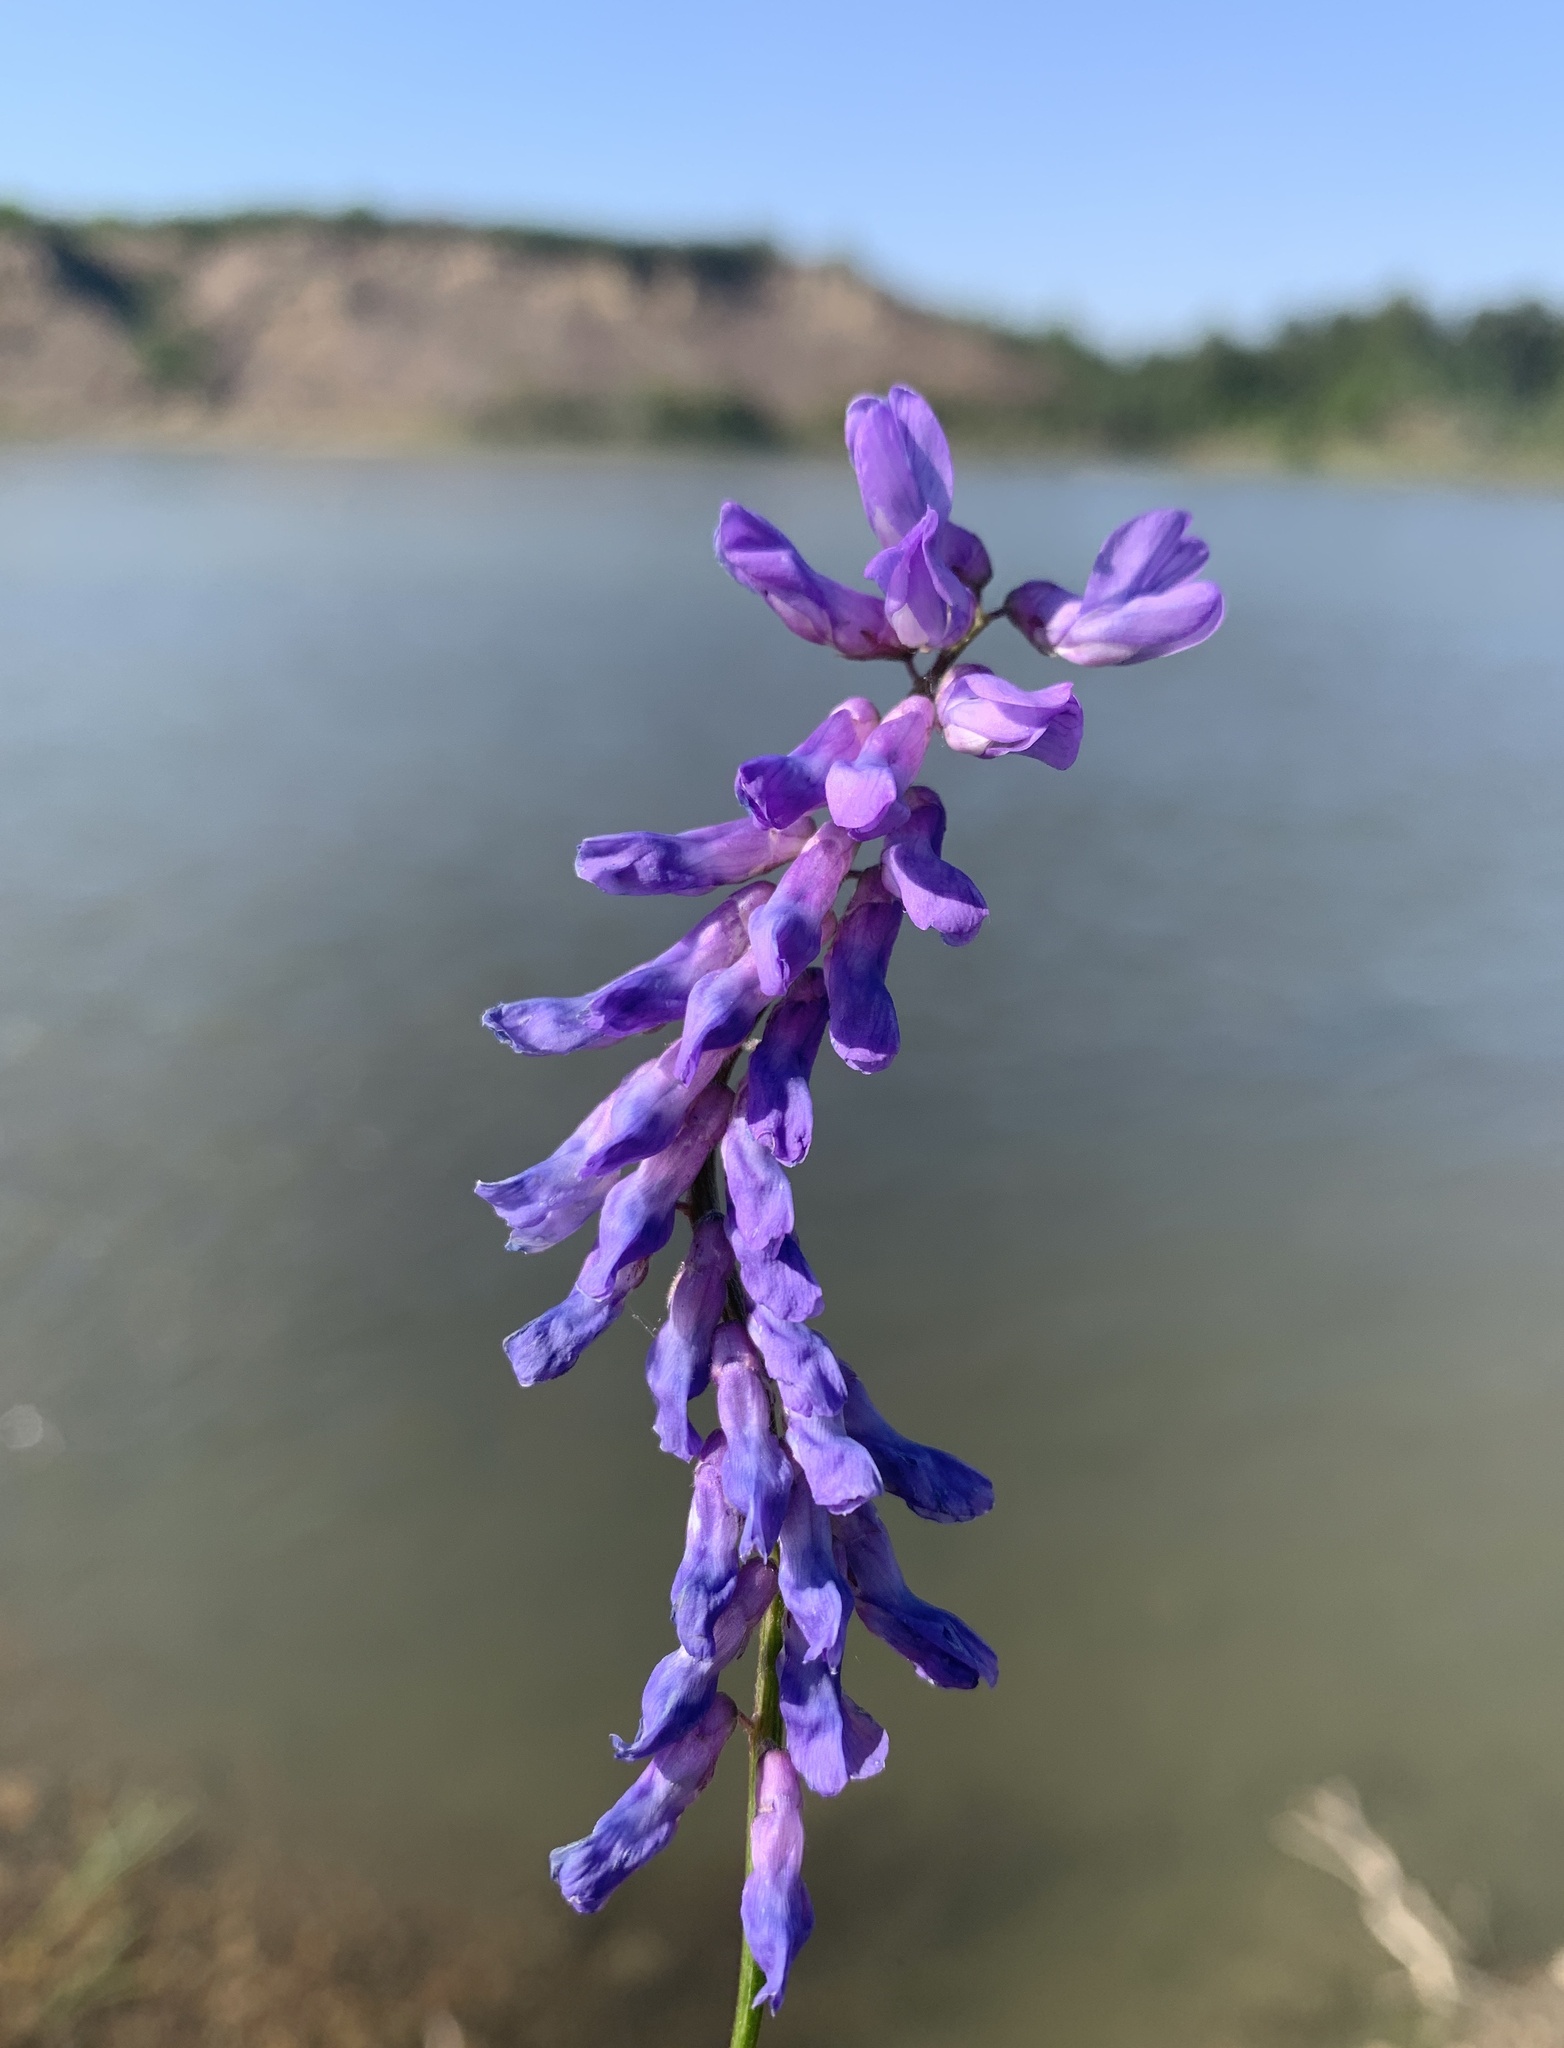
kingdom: Plantae
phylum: Tracheophyta
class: Magnoliopsida
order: Fabales
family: Fabaceae
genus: Vicia
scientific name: Vicia cracca
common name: Bird vetch
